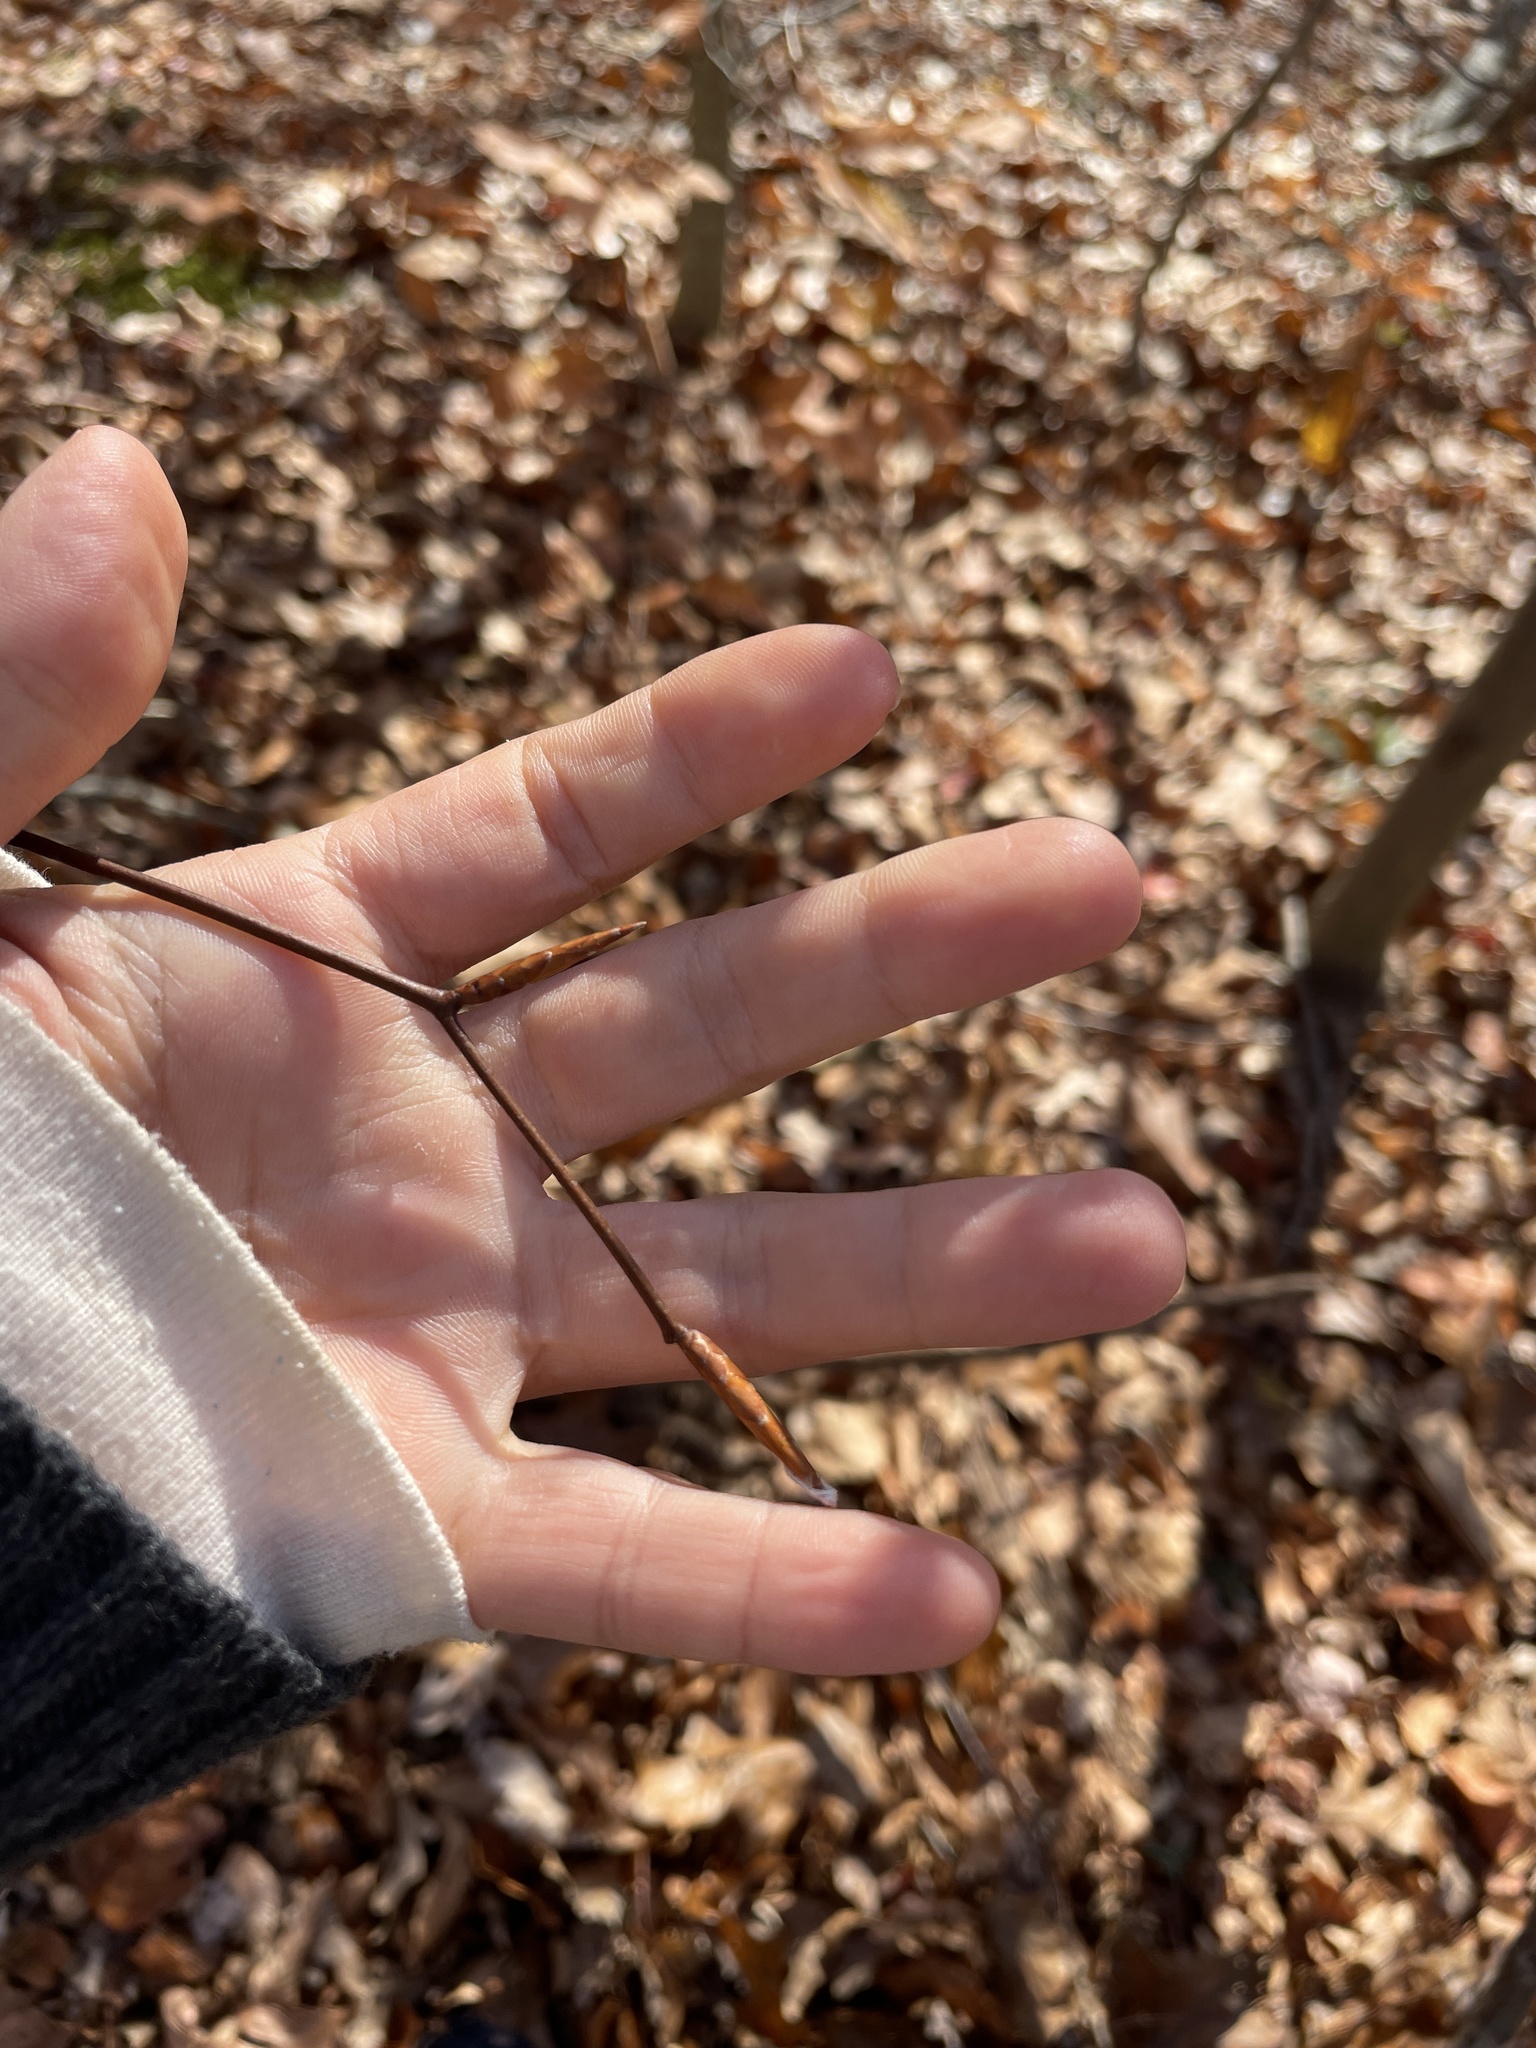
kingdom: Plantae
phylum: Tracheophyta
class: Magnoliopsida
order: Fagales
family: Fagaceae
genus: Fagus
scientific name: Fagus grandifolia
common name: American beech
